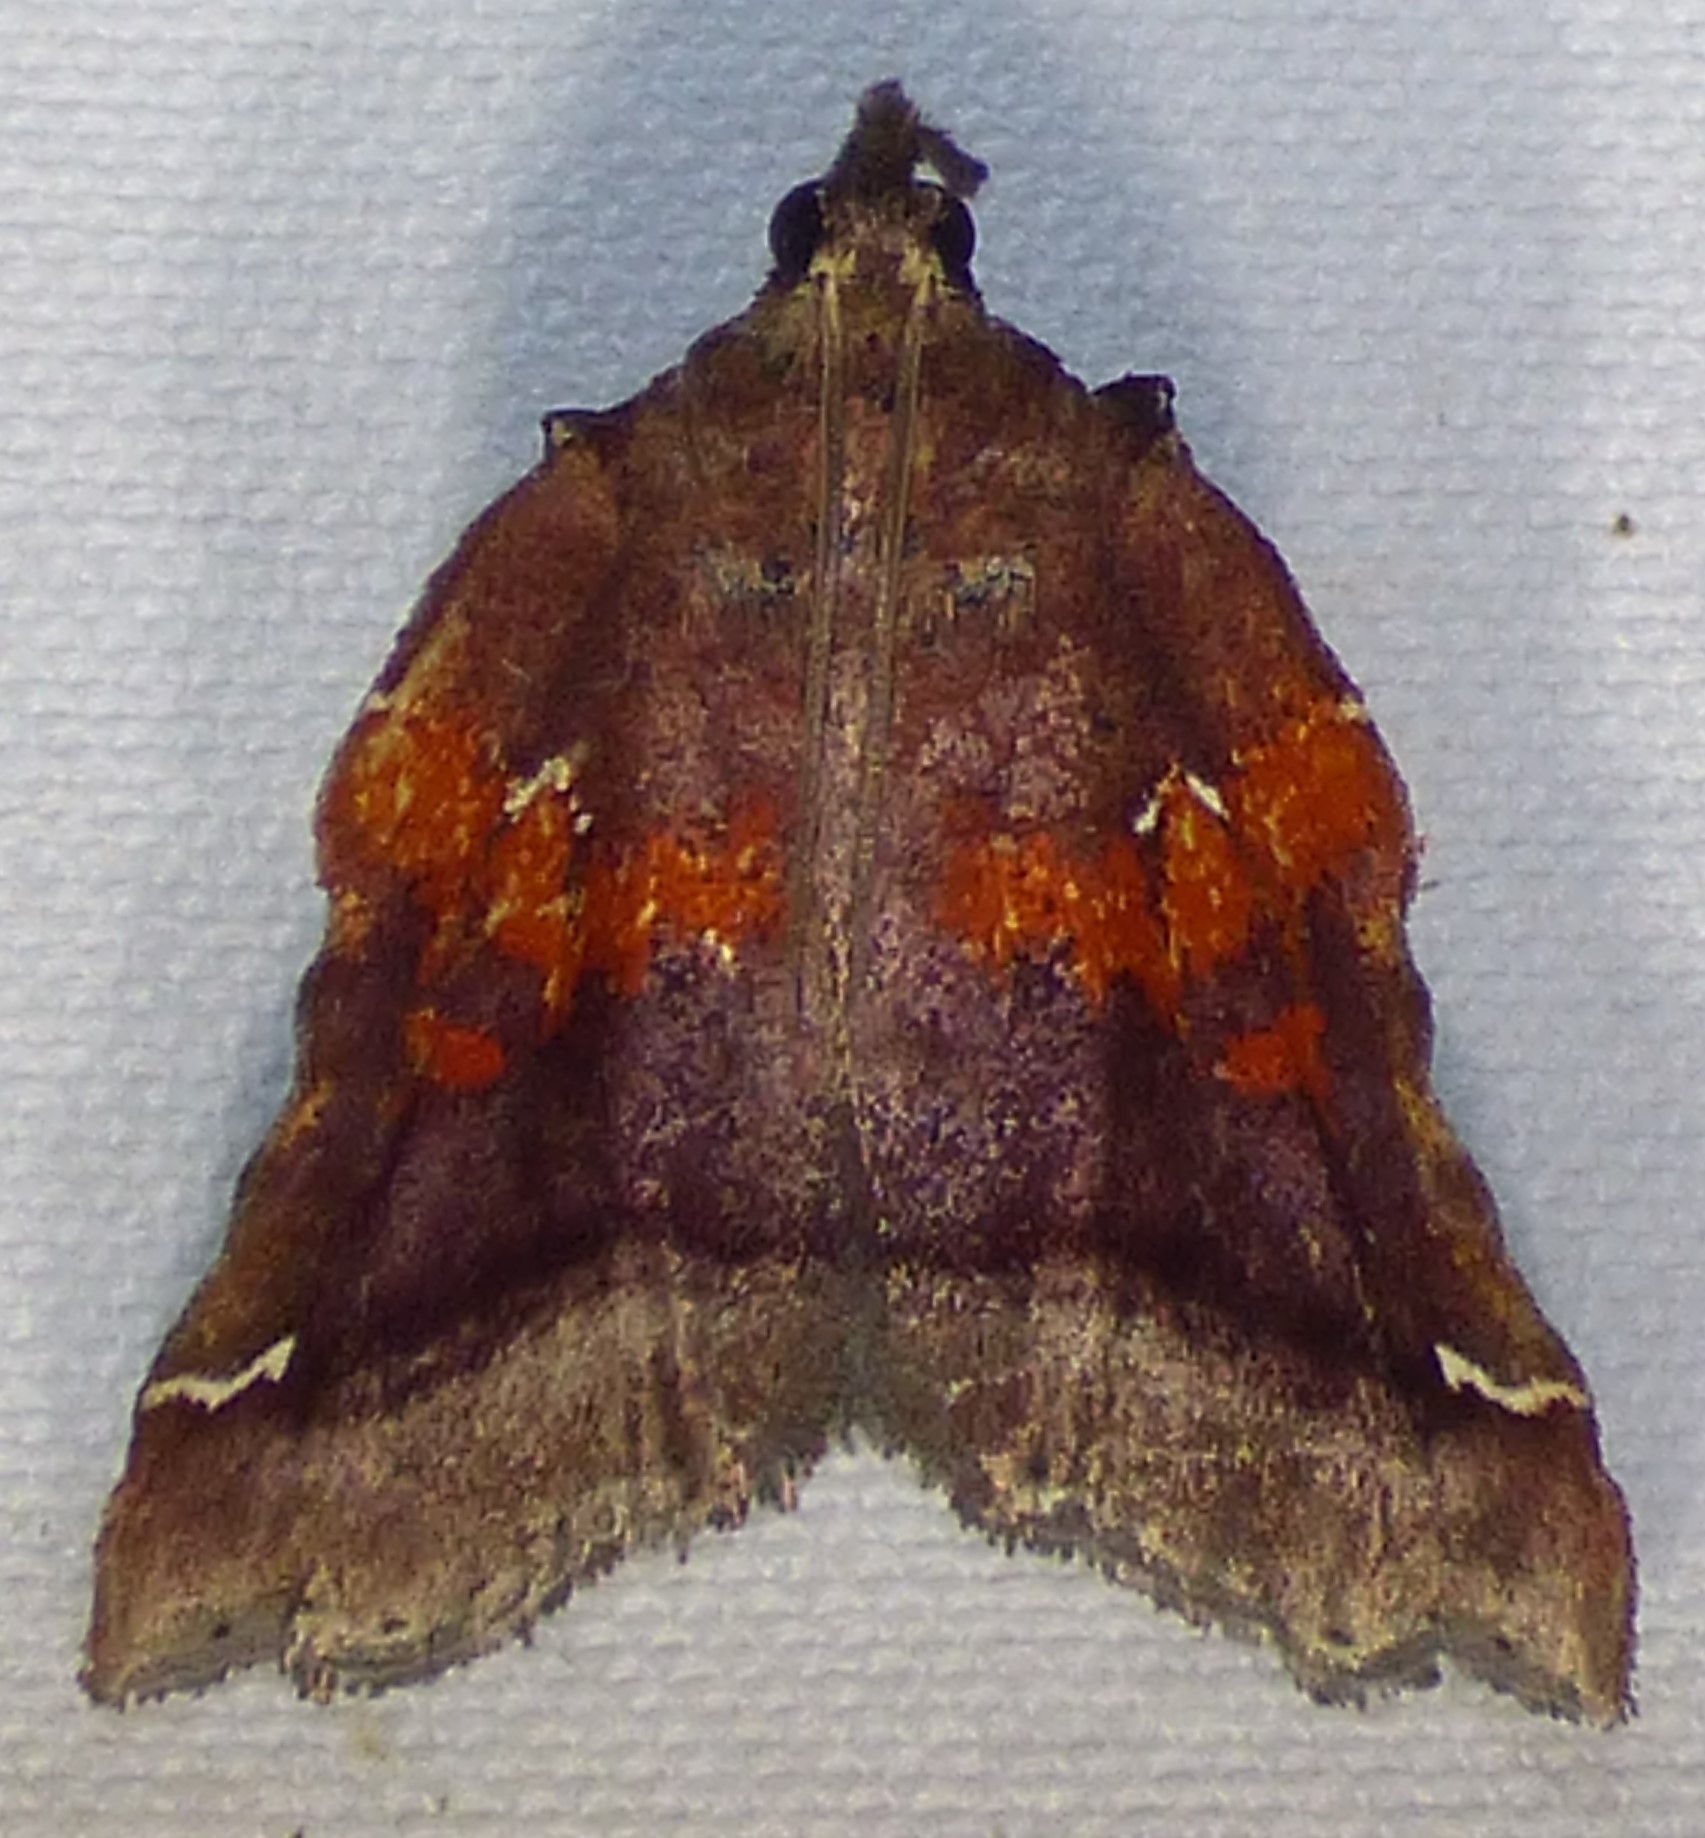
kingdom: Animalia
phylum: Arthropoda
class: Insecta
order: Lepidoptera
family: Pyralidae
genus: Clydonopteron
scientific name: Clydonopteron sacculana
